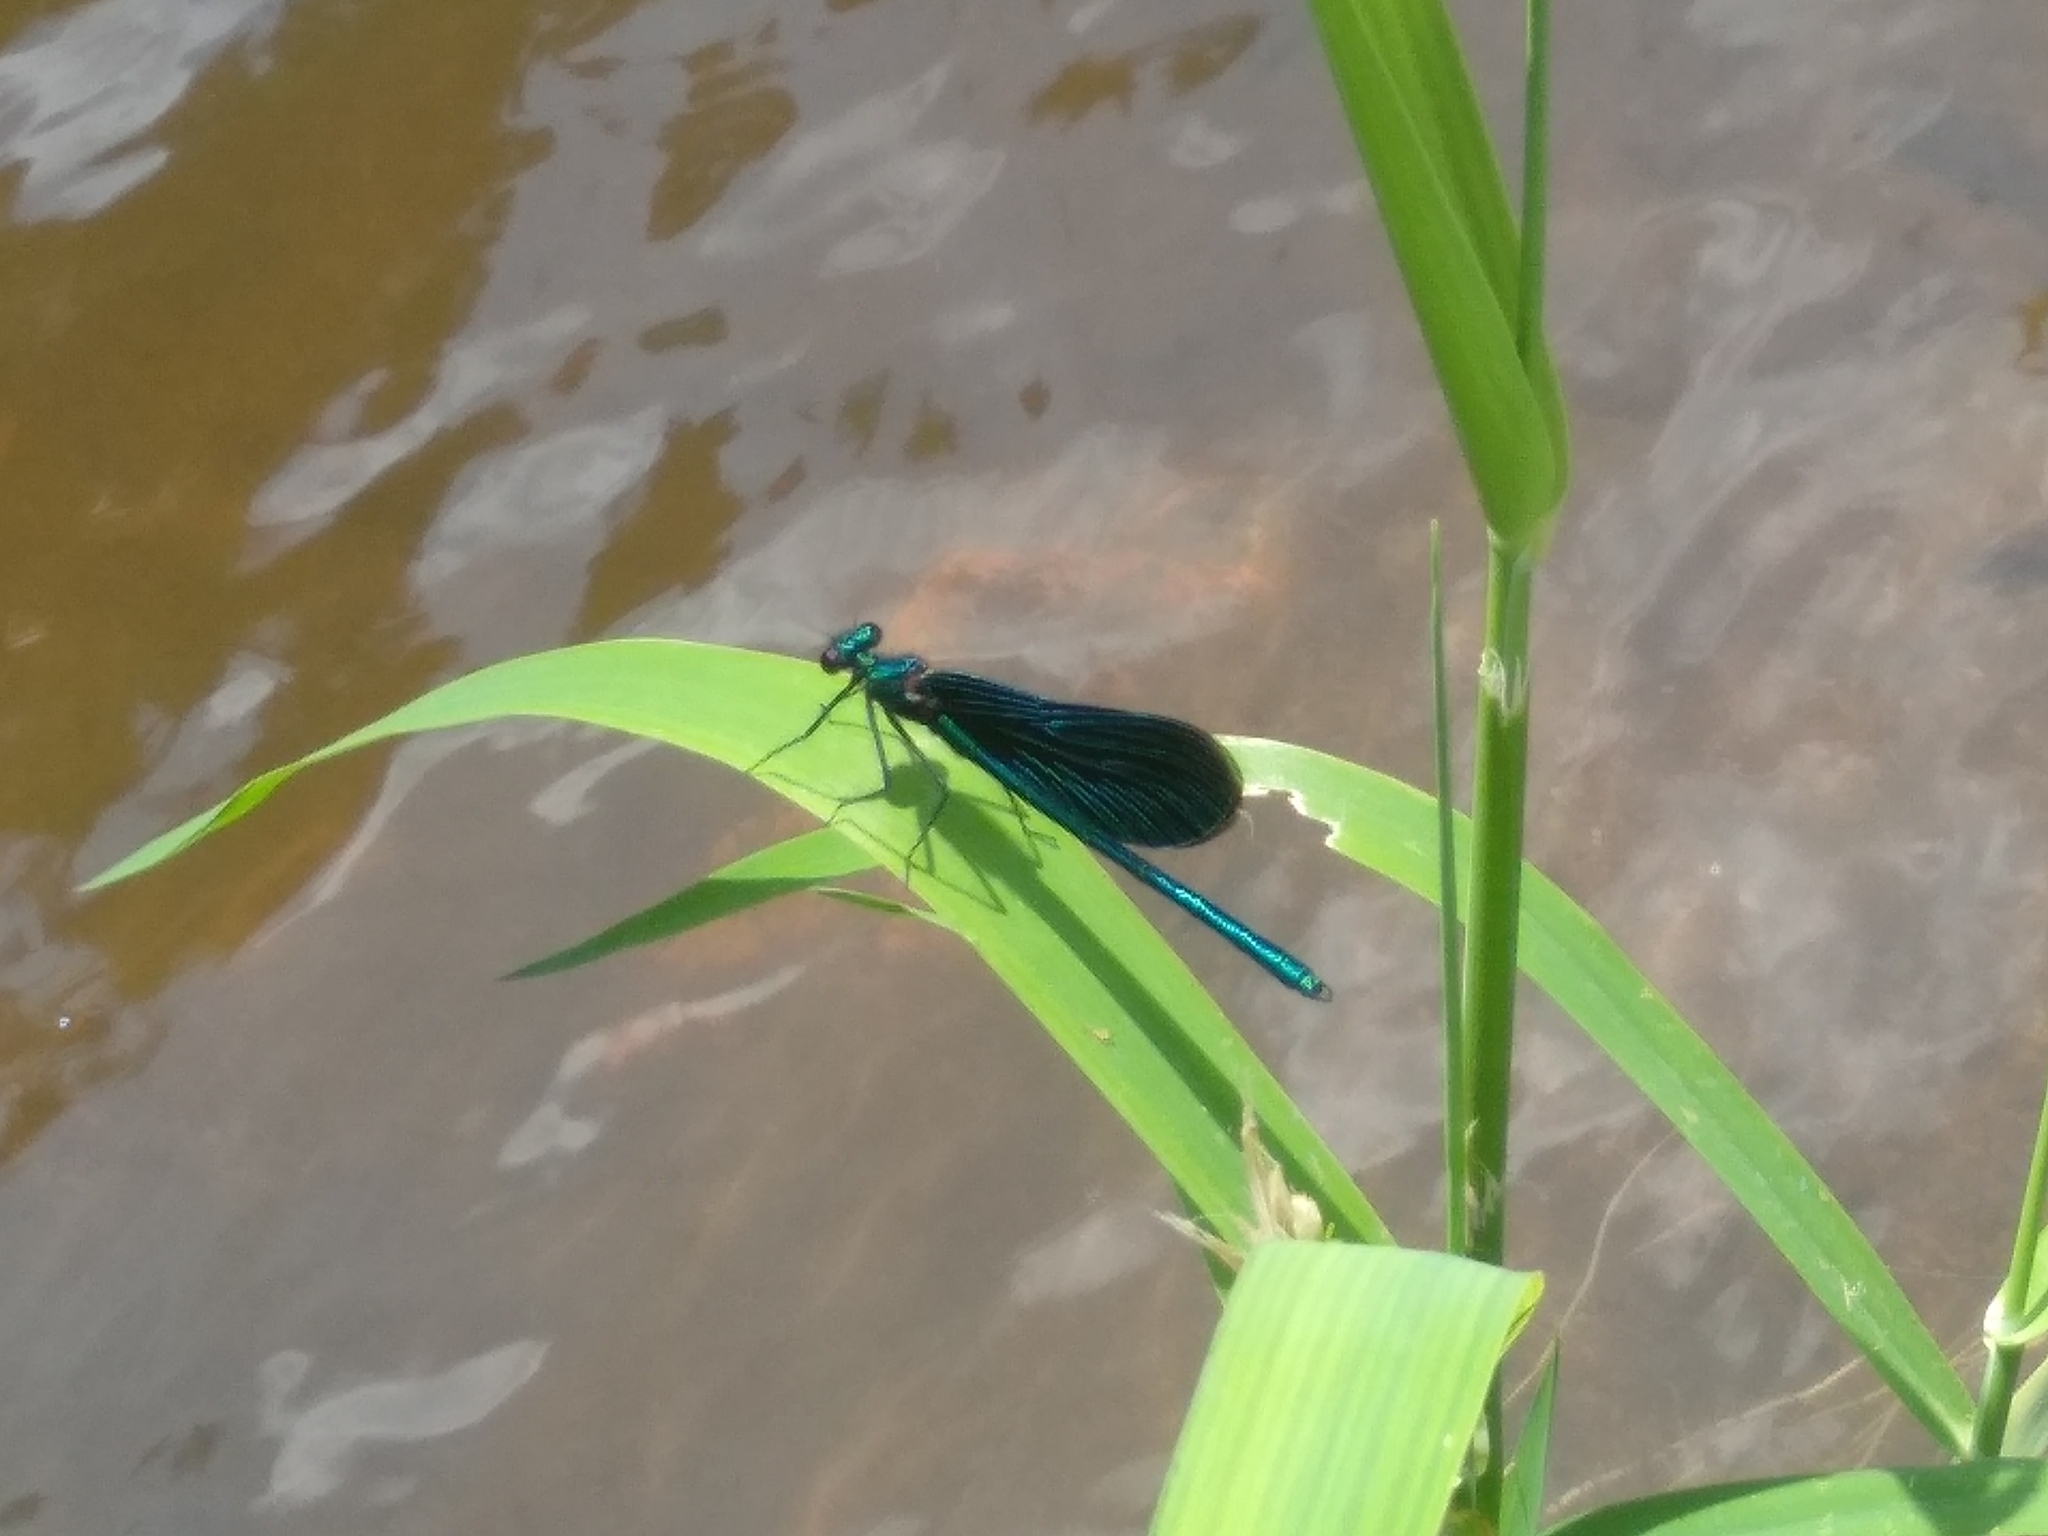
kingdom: Animalia
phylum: Arthropoda
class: Insecta
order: Odonata
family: Calopterygidae
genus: Calopteryx
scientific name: Calopteryx virgo
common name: Beautiful demoiselle
